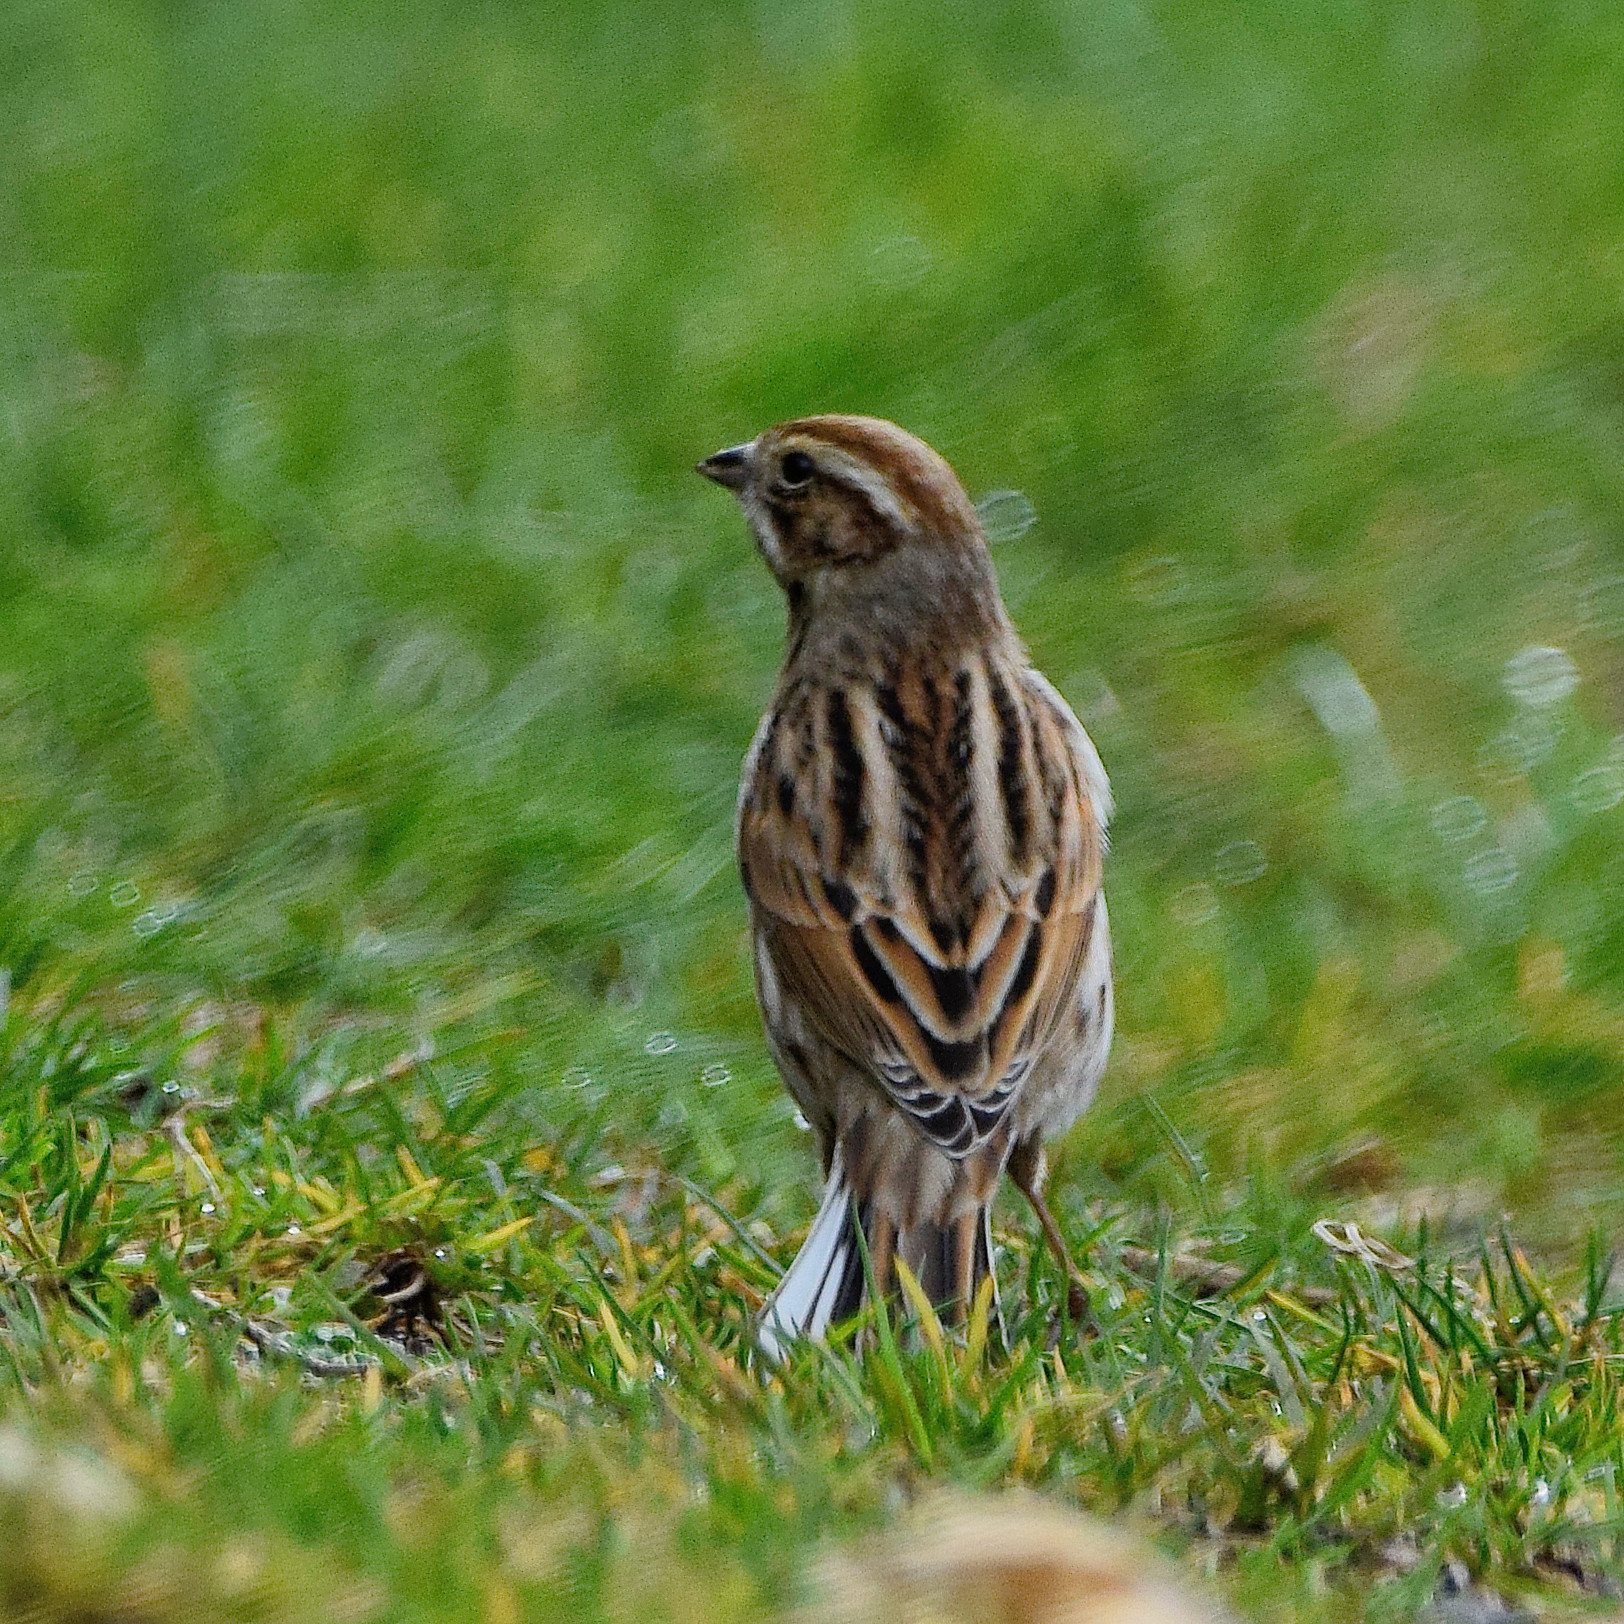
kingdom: Animalia
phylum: Chordata
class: Aves
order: Passeriformes
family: Emberizidae
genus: Emberiza
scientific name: Emberiza schoeniclus
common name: Reed bunting
